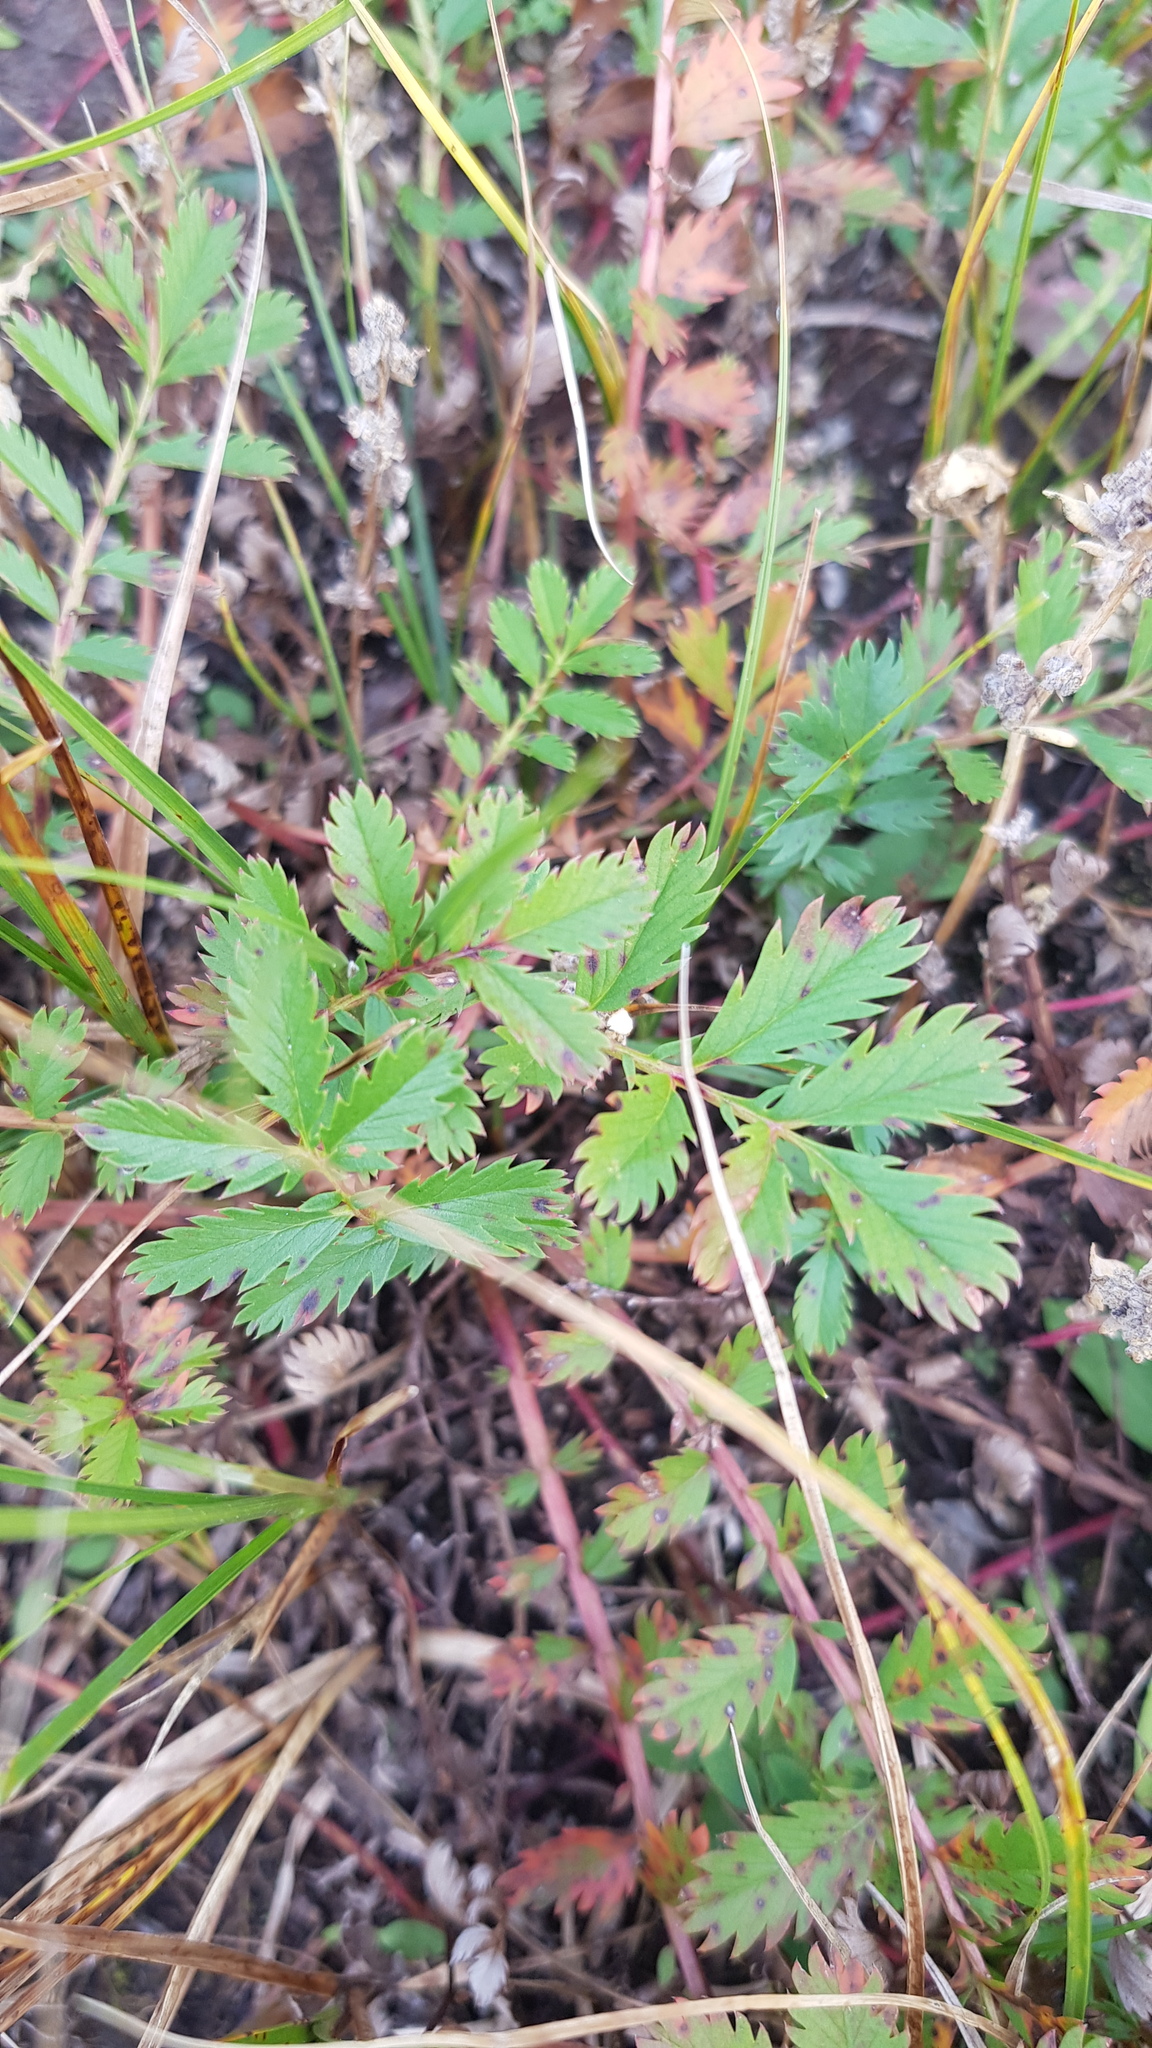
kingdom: Plantae
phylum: Tracheophyta
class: Magnoliopsida
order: Rosales
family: Rosaceae
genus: Argentina
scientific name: Argentina anserina
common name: Common silverweed
